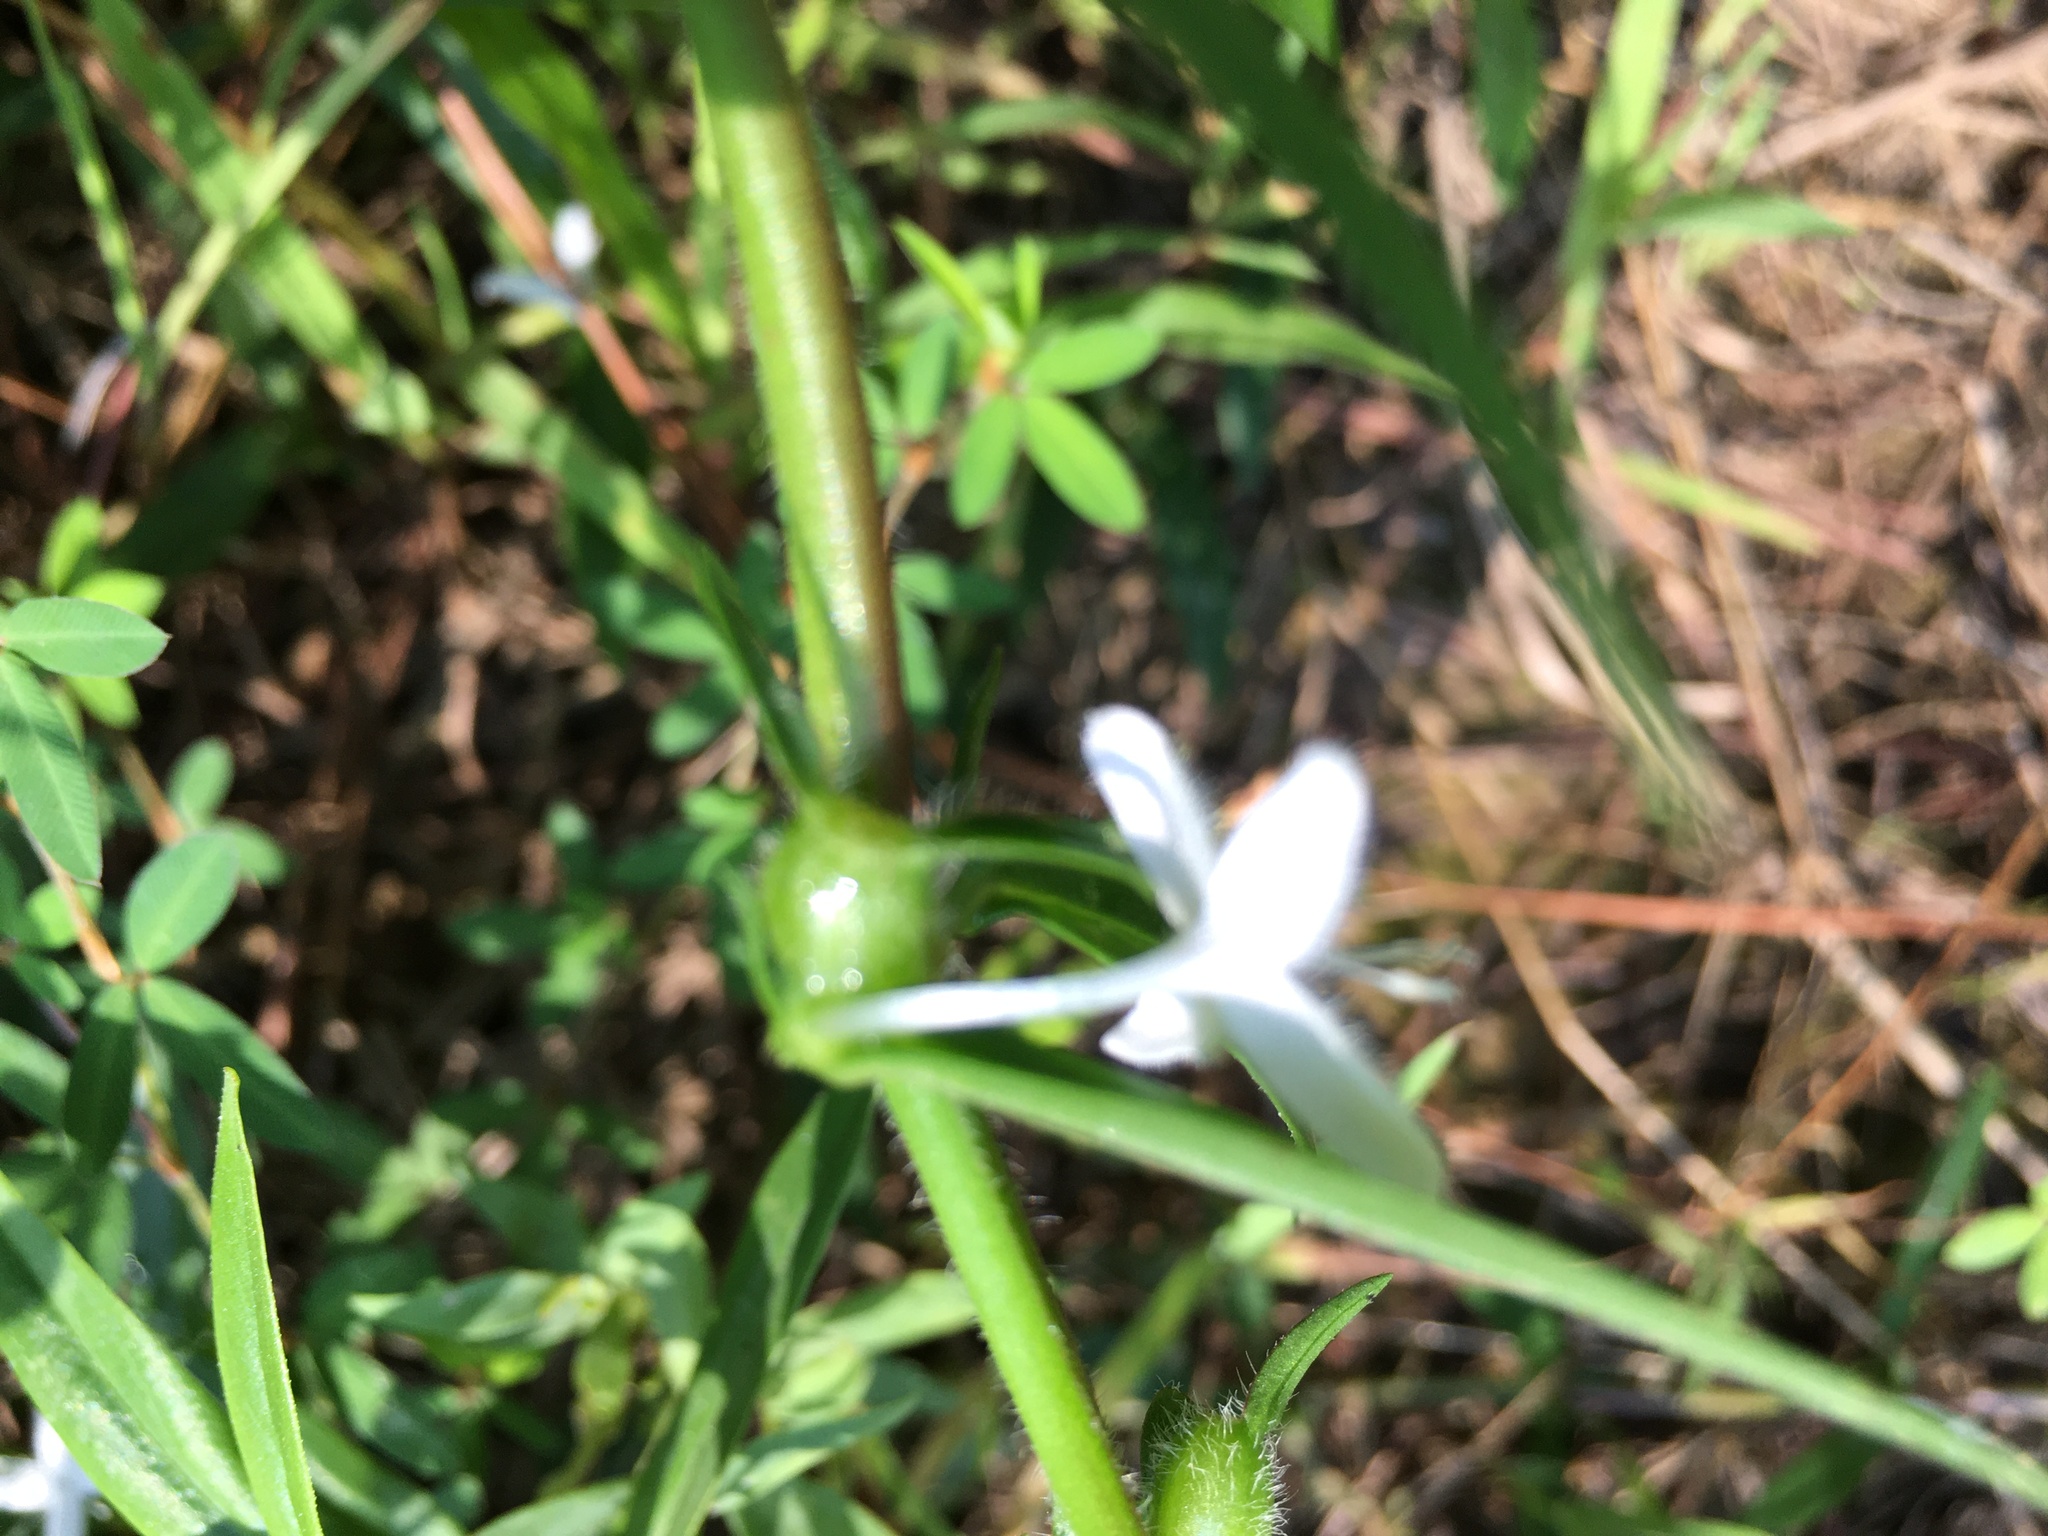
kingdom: Plantae
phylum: Tracheophyta
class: Magnoliopsida
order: Gentianales
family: Rubiaceae
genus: Diodia
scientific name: Diodia virginiana
